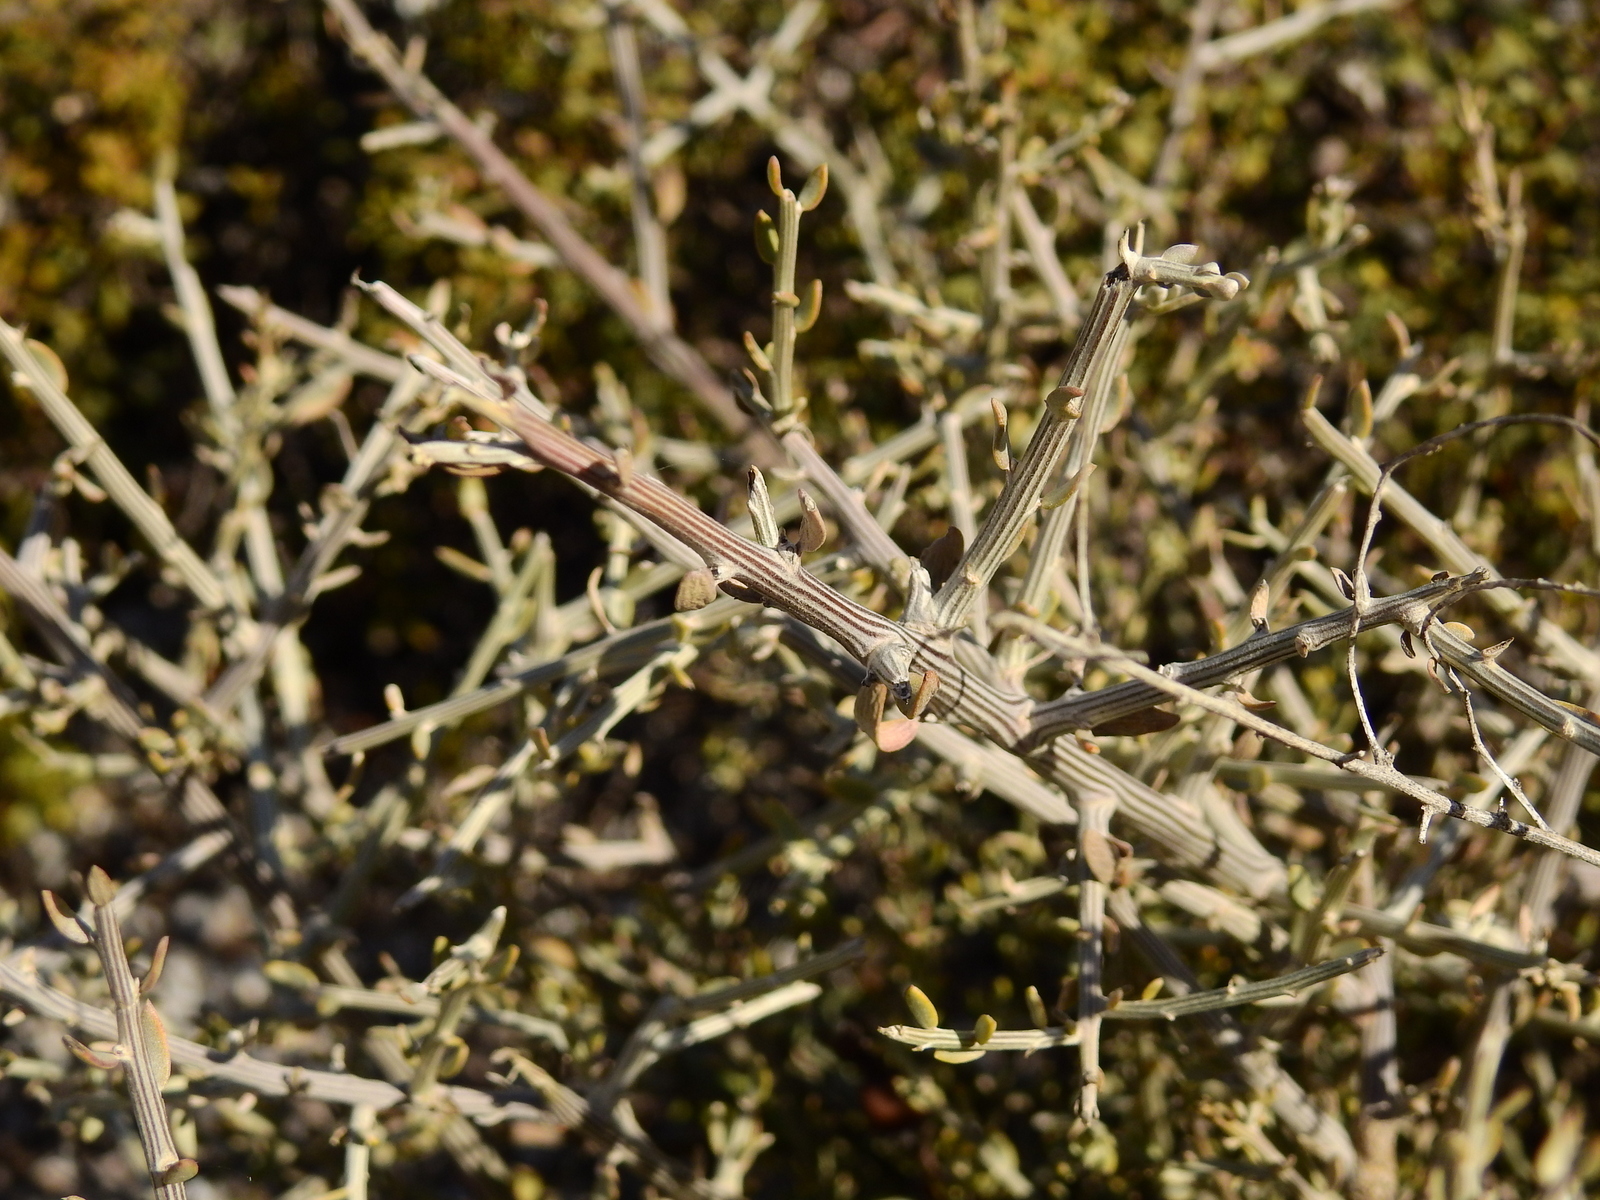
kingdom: Plantae
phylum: Tracheophyta
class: Magnoliopsida
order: Asterales
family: Asteraceae
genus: Cyclolepis
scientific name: Cyclolepis genistoides
